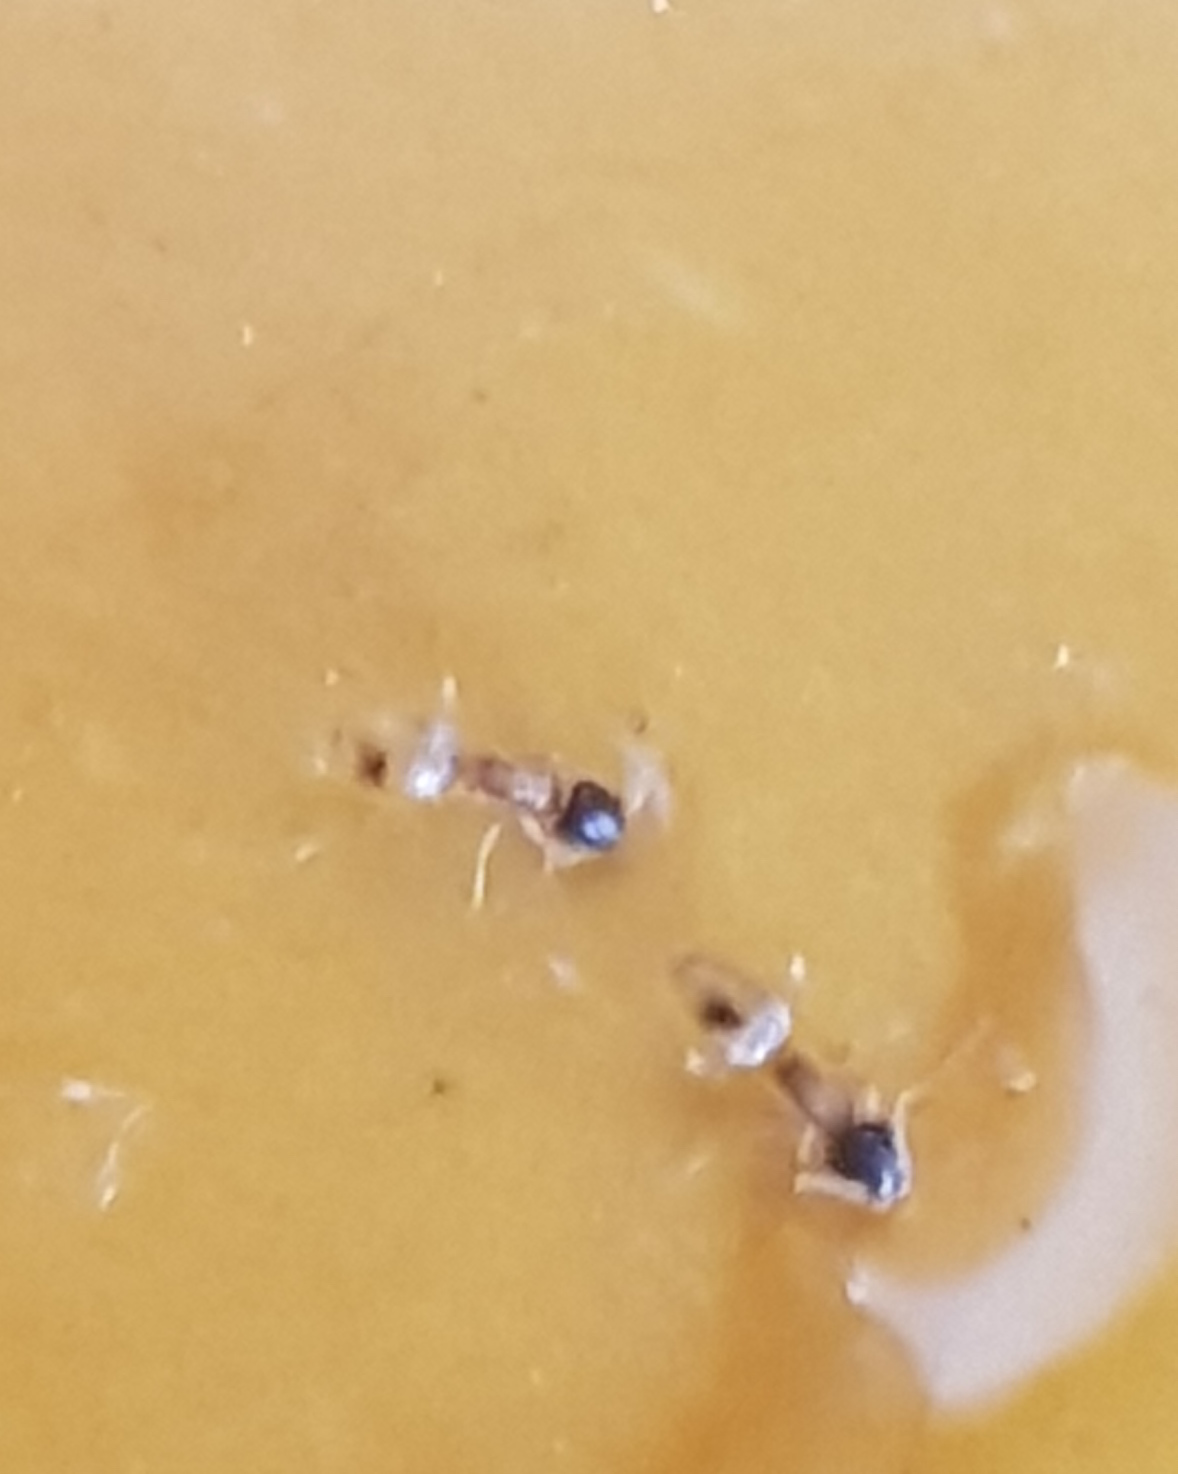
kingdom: Animalia
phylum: Arthropoda
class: Insecta
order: Hymenoptera
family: Formicidae
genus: Tapinoma
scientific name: Tapinoma melanocephalum
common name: Ghost ant
